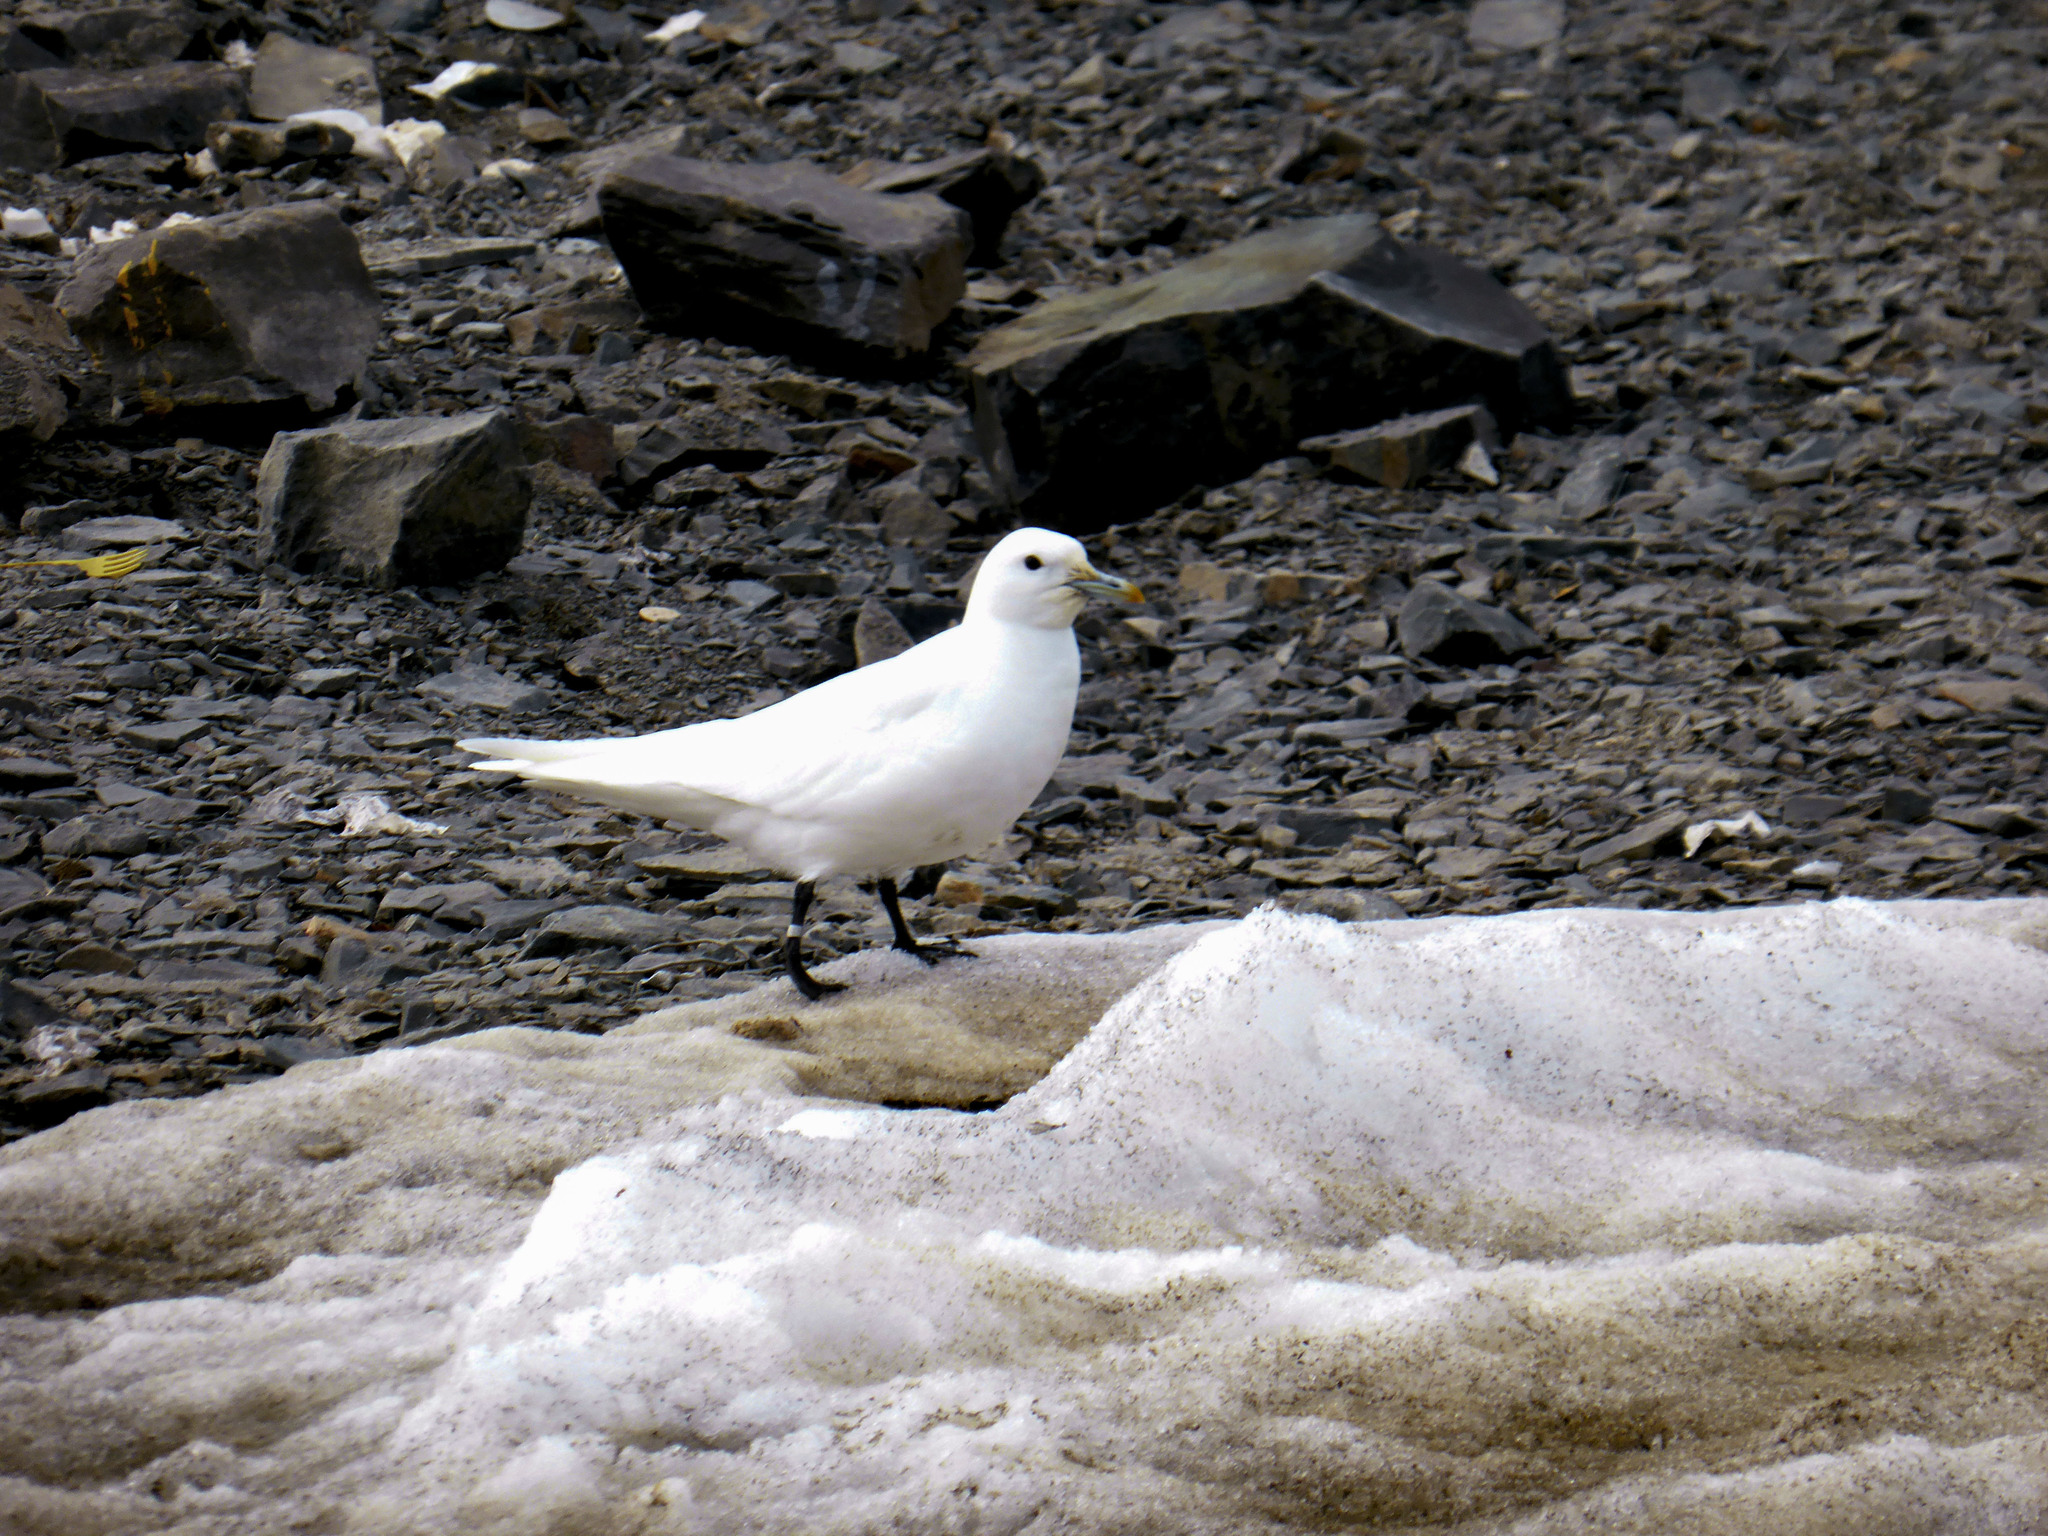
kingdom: Animalia
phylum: Chordata
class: Aves
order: Charadriiformes
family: Laridae
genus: Pagophila
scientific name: Pagophila eburnea
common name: Ivory gull
